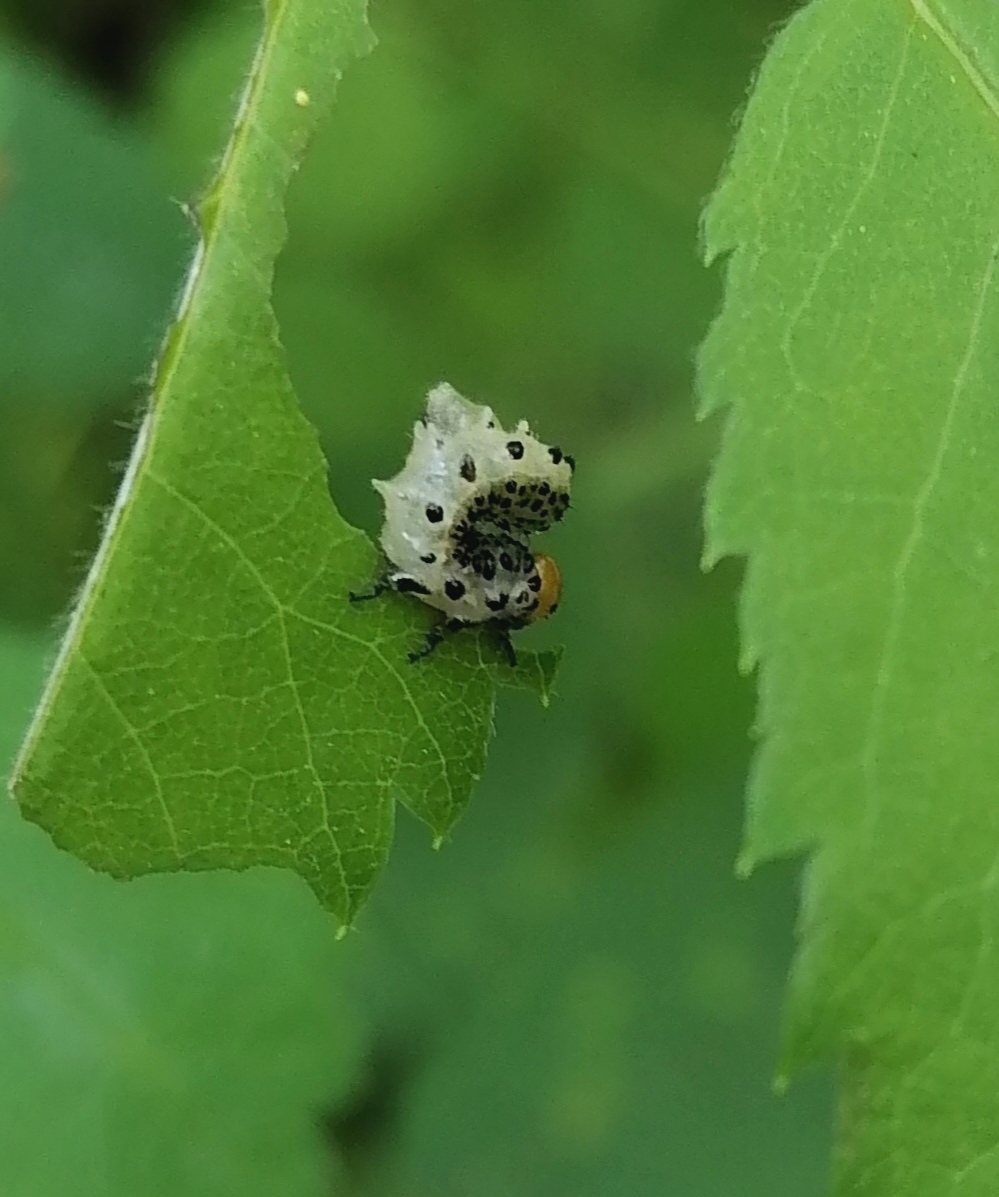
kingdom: Animalia
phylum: Arthropoda
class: Insecta
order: Hymenoptera
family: Argidae
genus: Arge
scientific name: Arge pagana
